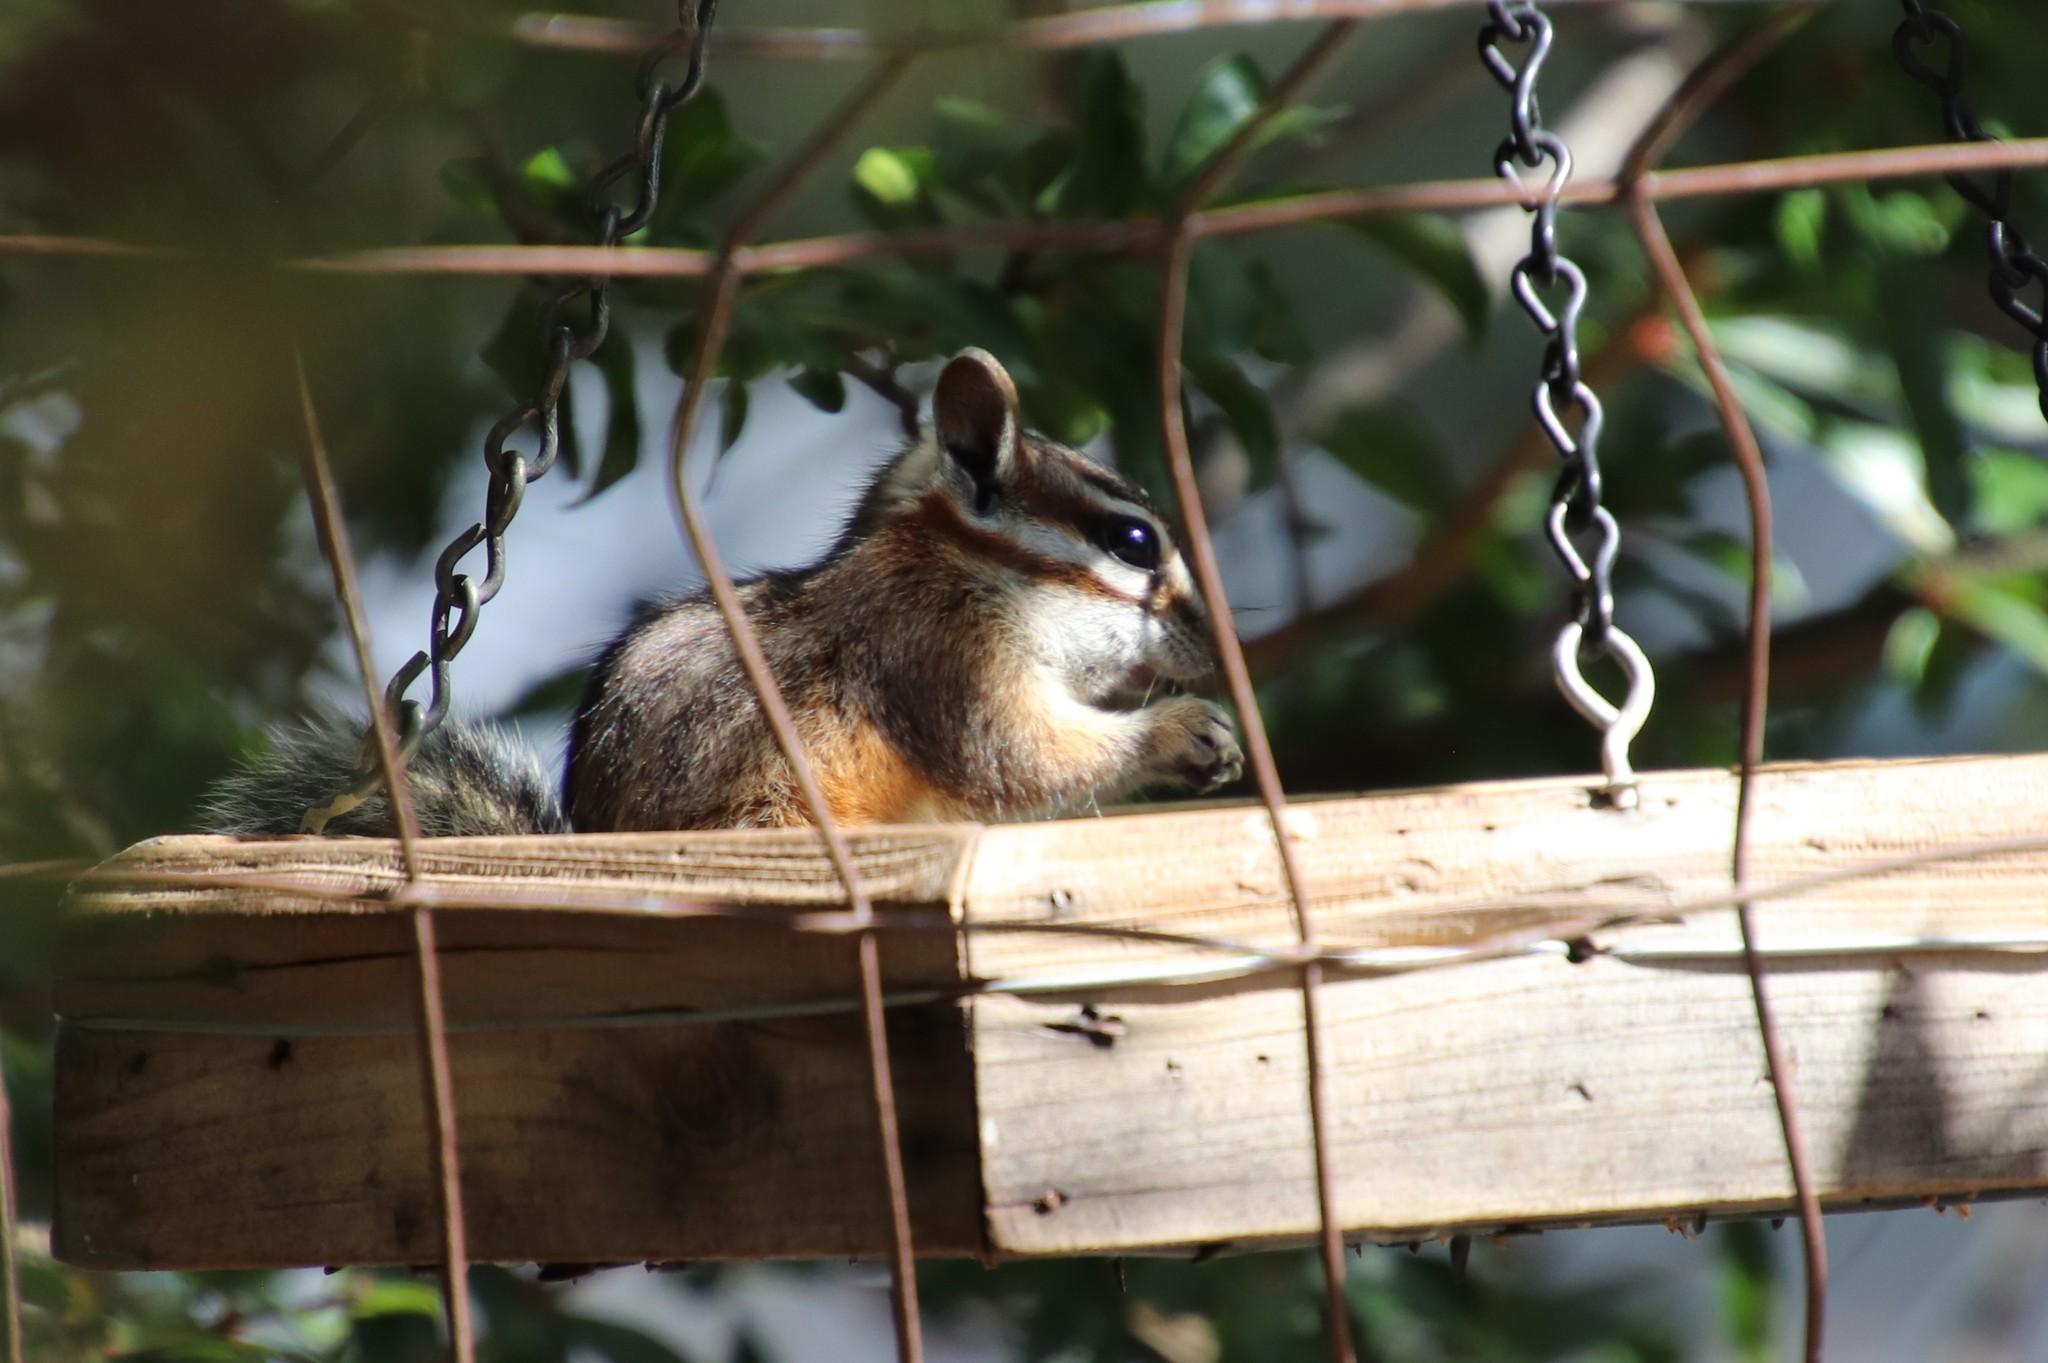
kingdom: Animalia
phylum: Chordata
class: Mammalia
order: Rodentia
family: Sciuridae
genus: Tamias
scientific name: Tamias dorsalis
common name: Cliff chipmunk
